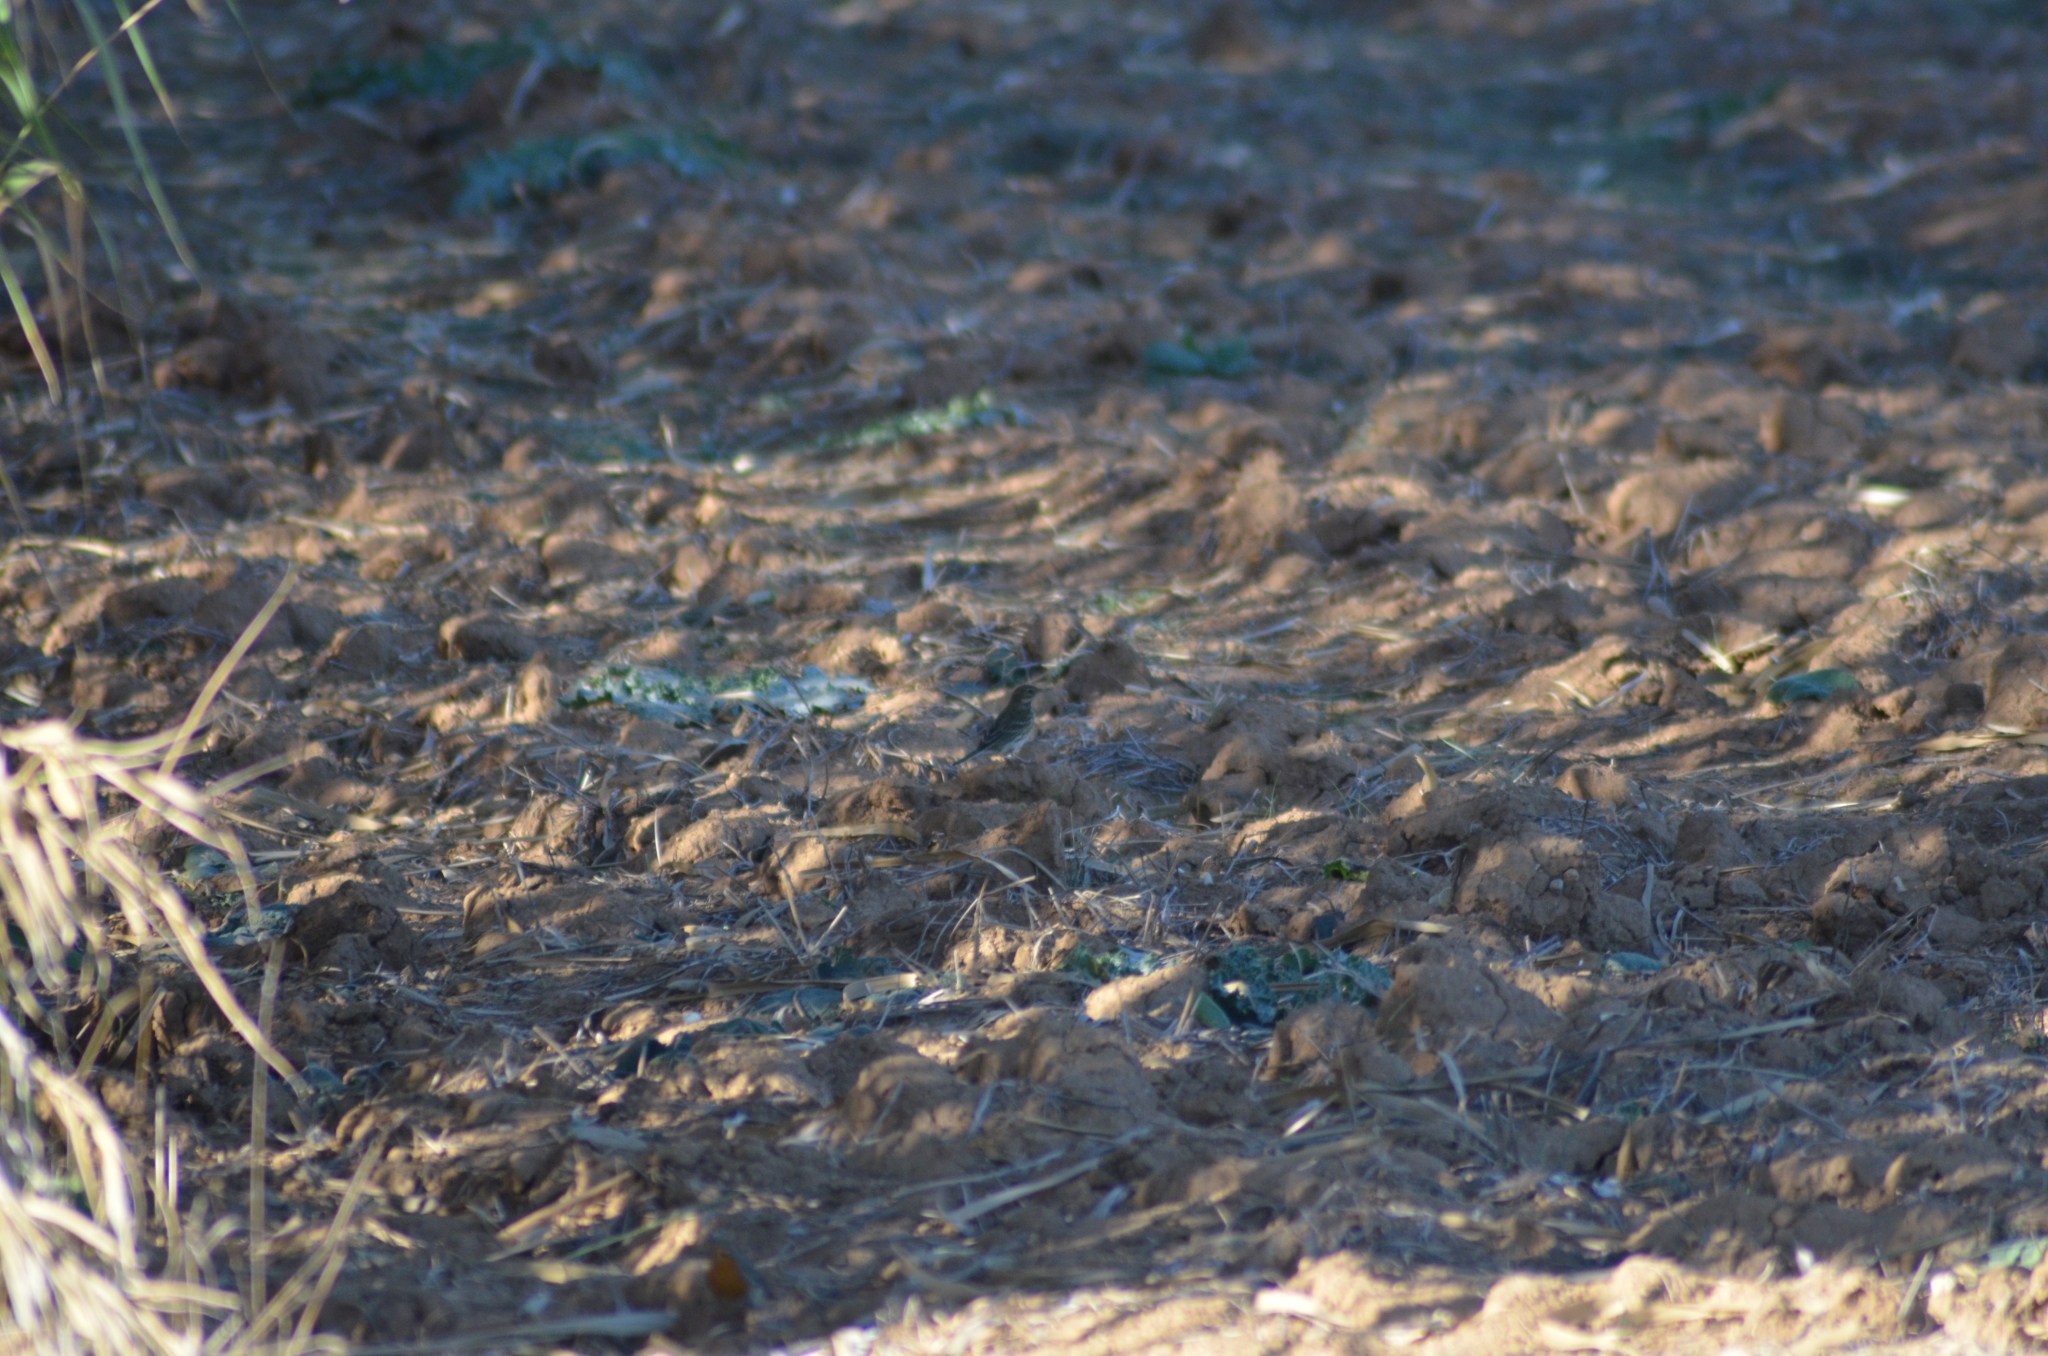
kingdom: Animalia
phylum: Chordata
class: Aves
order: Passeriformes
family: Motacillidae
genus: Anthus
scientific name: Anthus pratensis
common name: Meadow pipit
